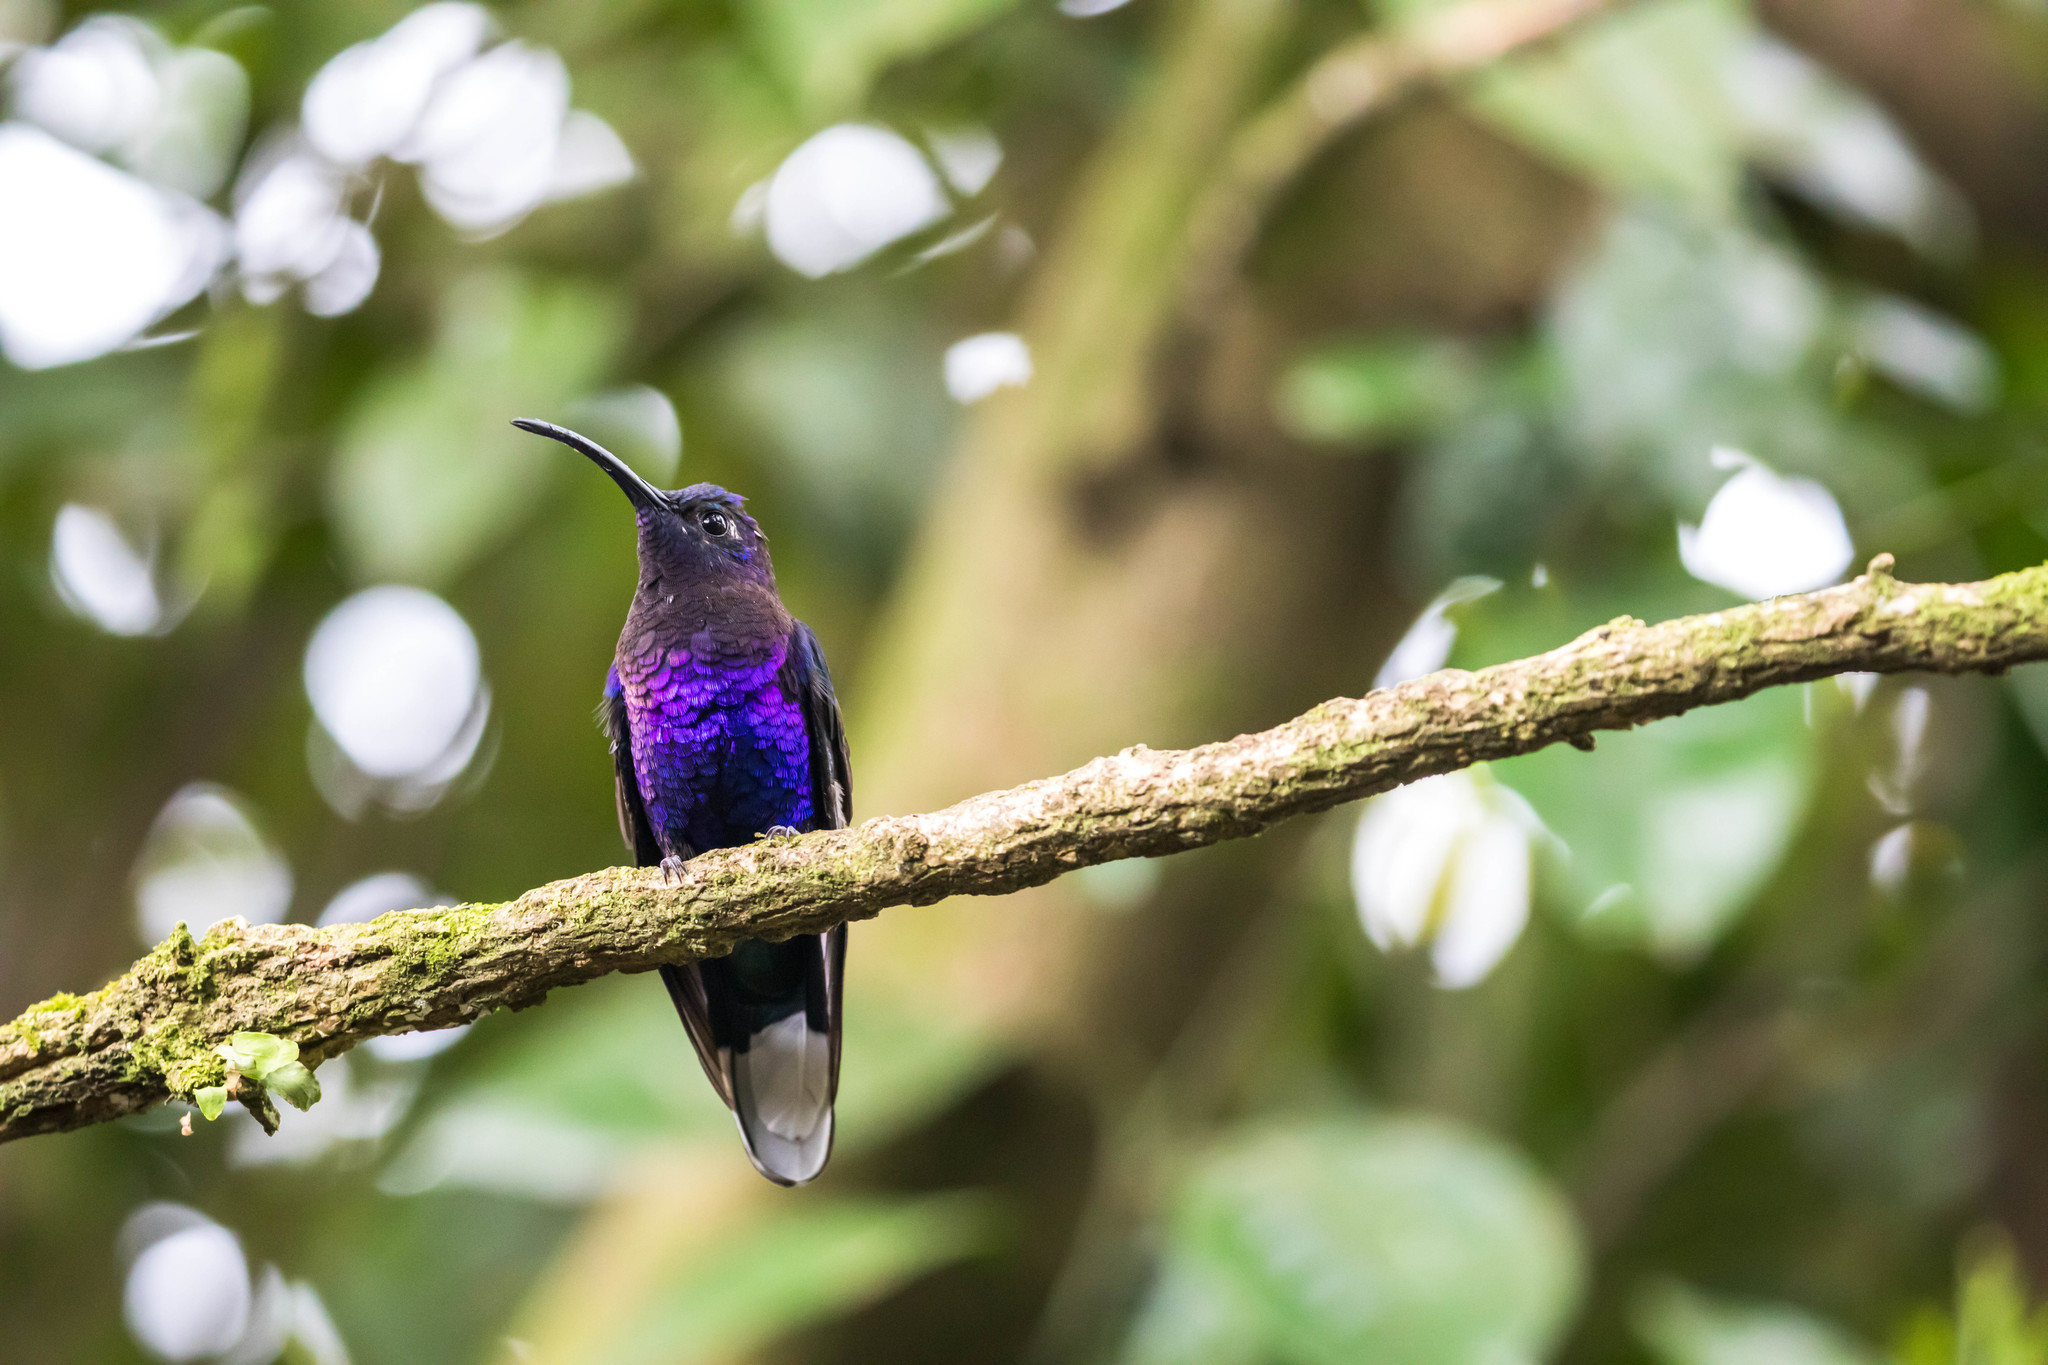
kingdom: Animalia
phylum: Chordata
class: Aves
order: Apodiformes
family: Trochilidae
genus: Campylopterus
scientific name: Campylopterus hemileucurus
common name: Violet sabrewing
